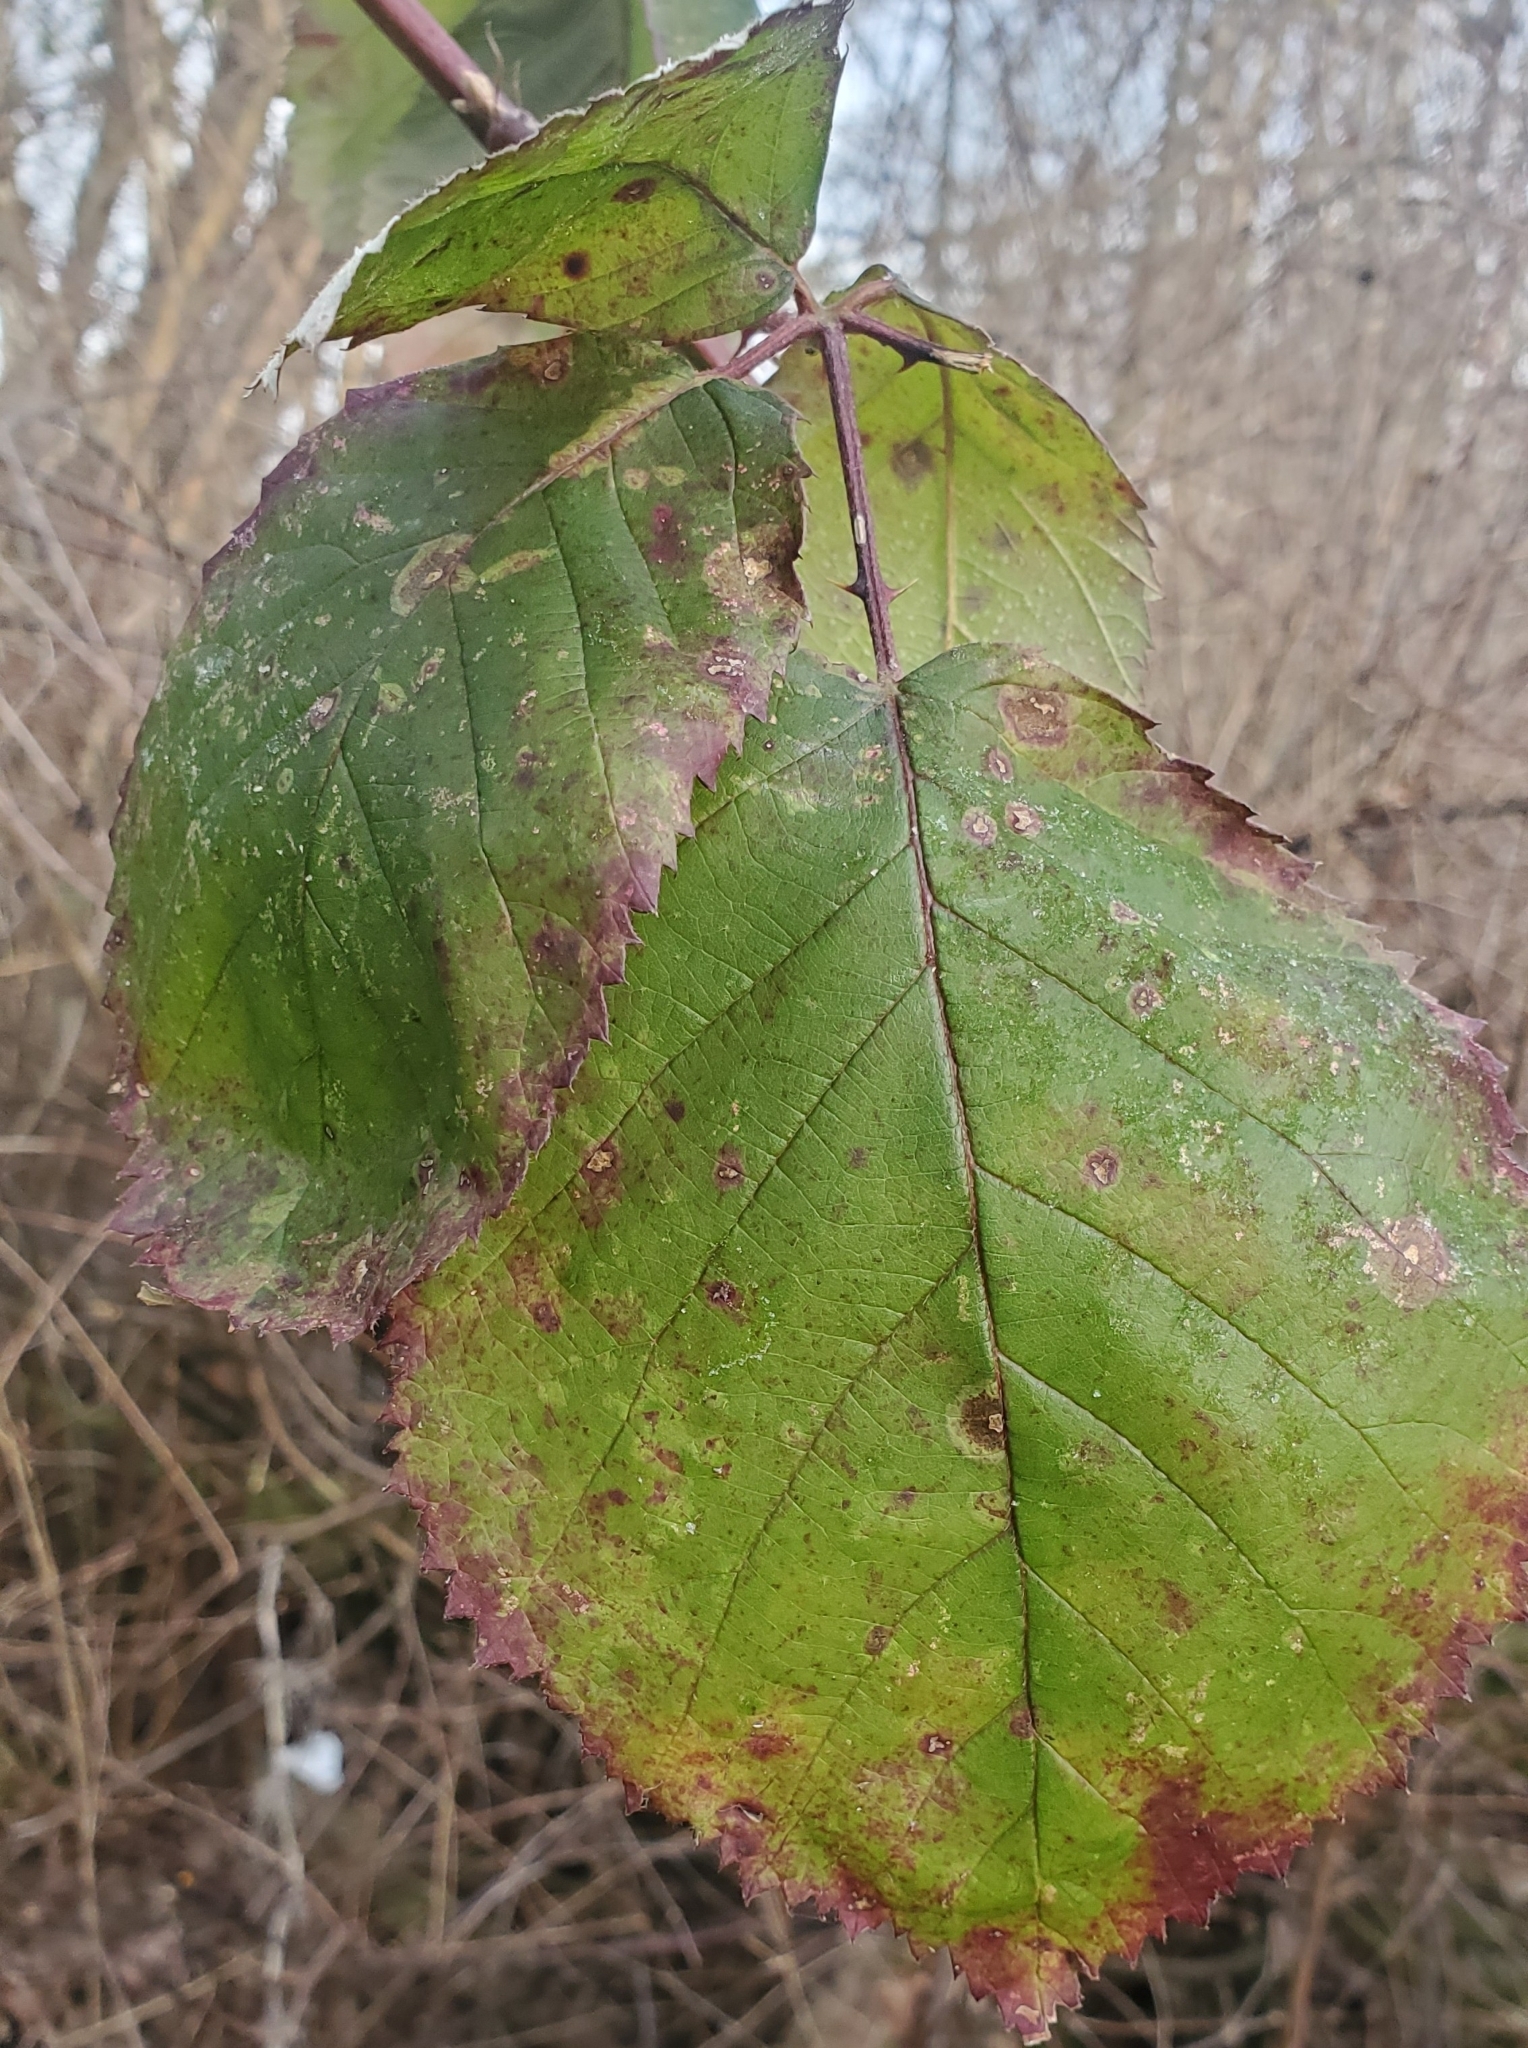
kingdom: Plantae
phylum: Tracheophyta
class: Magnoliopsida
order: Rosales
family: Rosaceae
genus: Rubus
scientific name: Rubus bifrons
